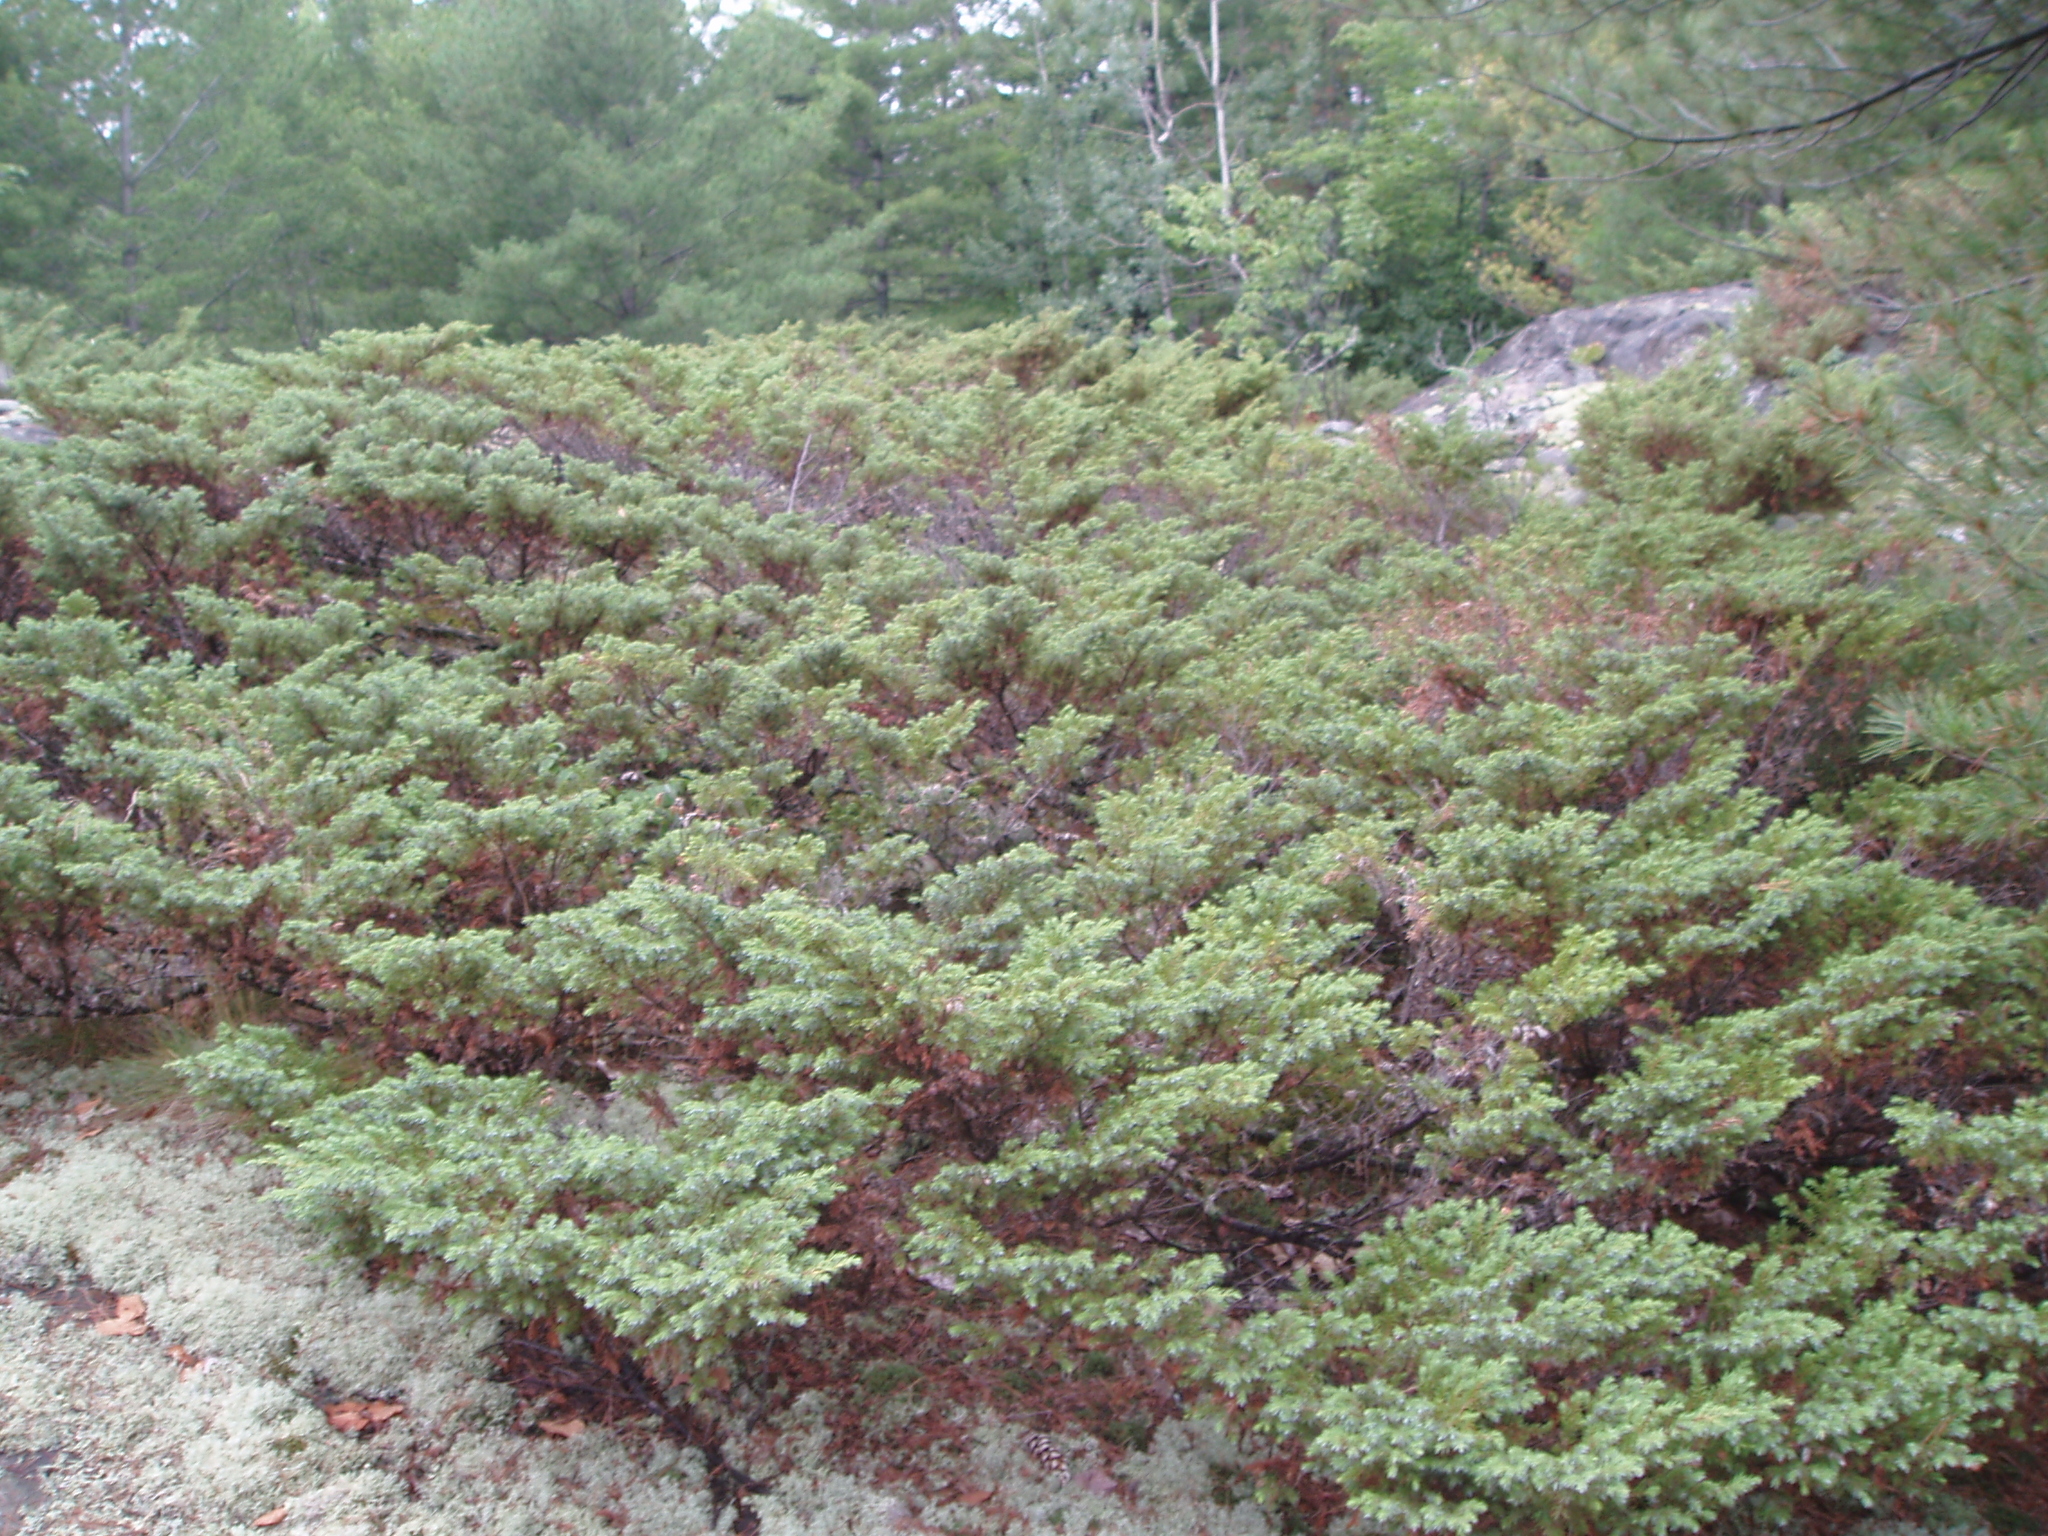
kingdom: Plantae
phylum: Tracheophyta
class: Pinopsida
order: Pinales
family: Cupressaceae
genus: Juniperus
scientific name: Juniperus communis
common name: Common juniper
